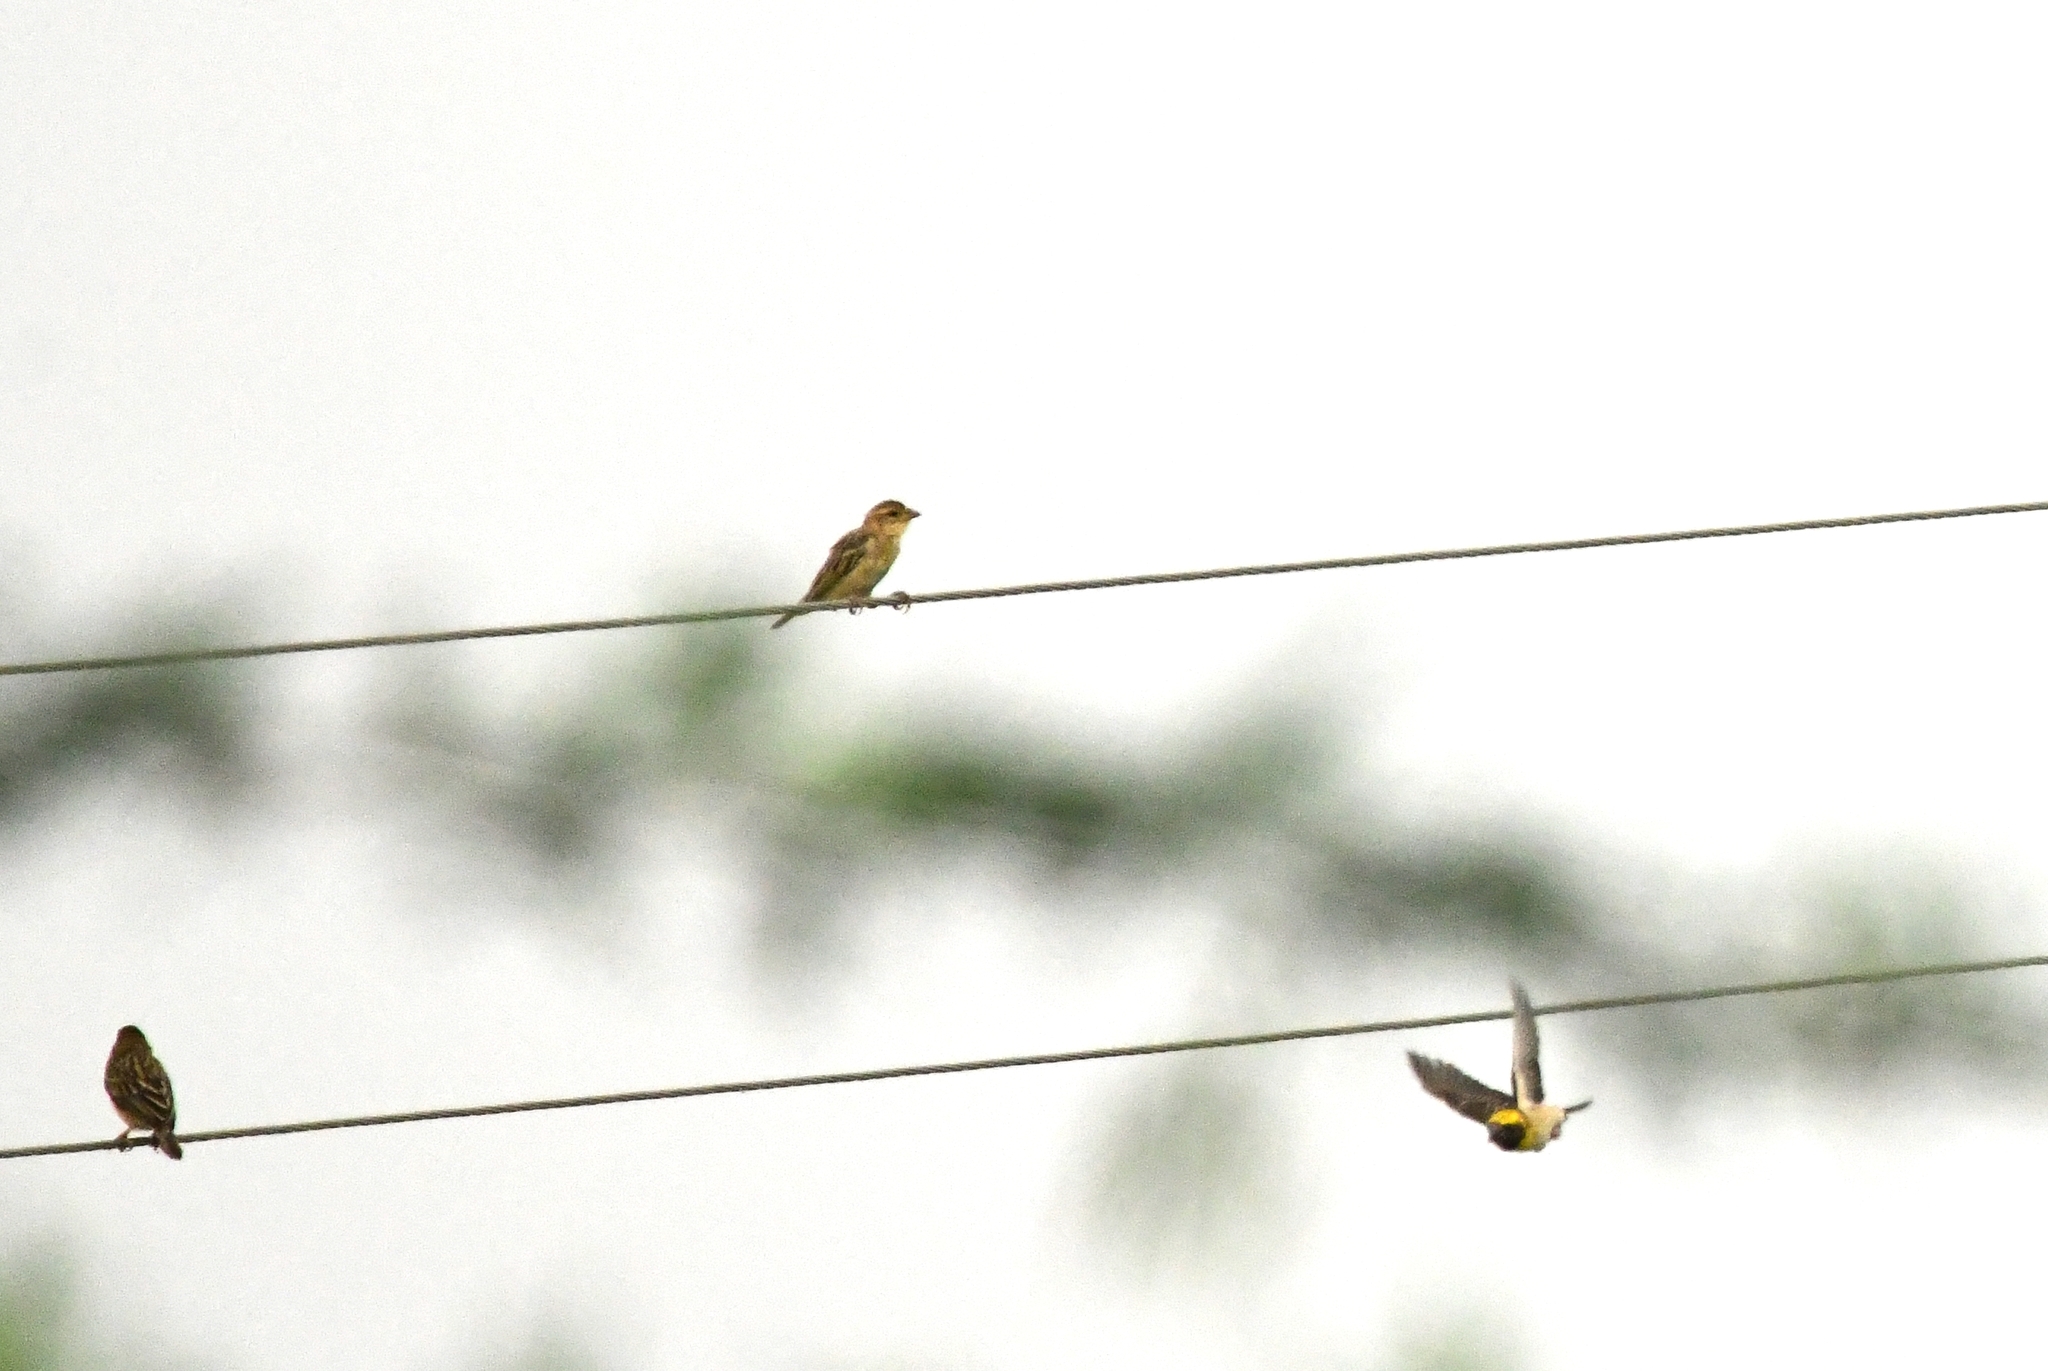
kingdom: Animalia
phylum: Chordata
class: Aves
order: Passeriformes
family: Ploceidae
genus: Ploceus
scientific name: Ploceus philippinus
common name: Baya weaver
